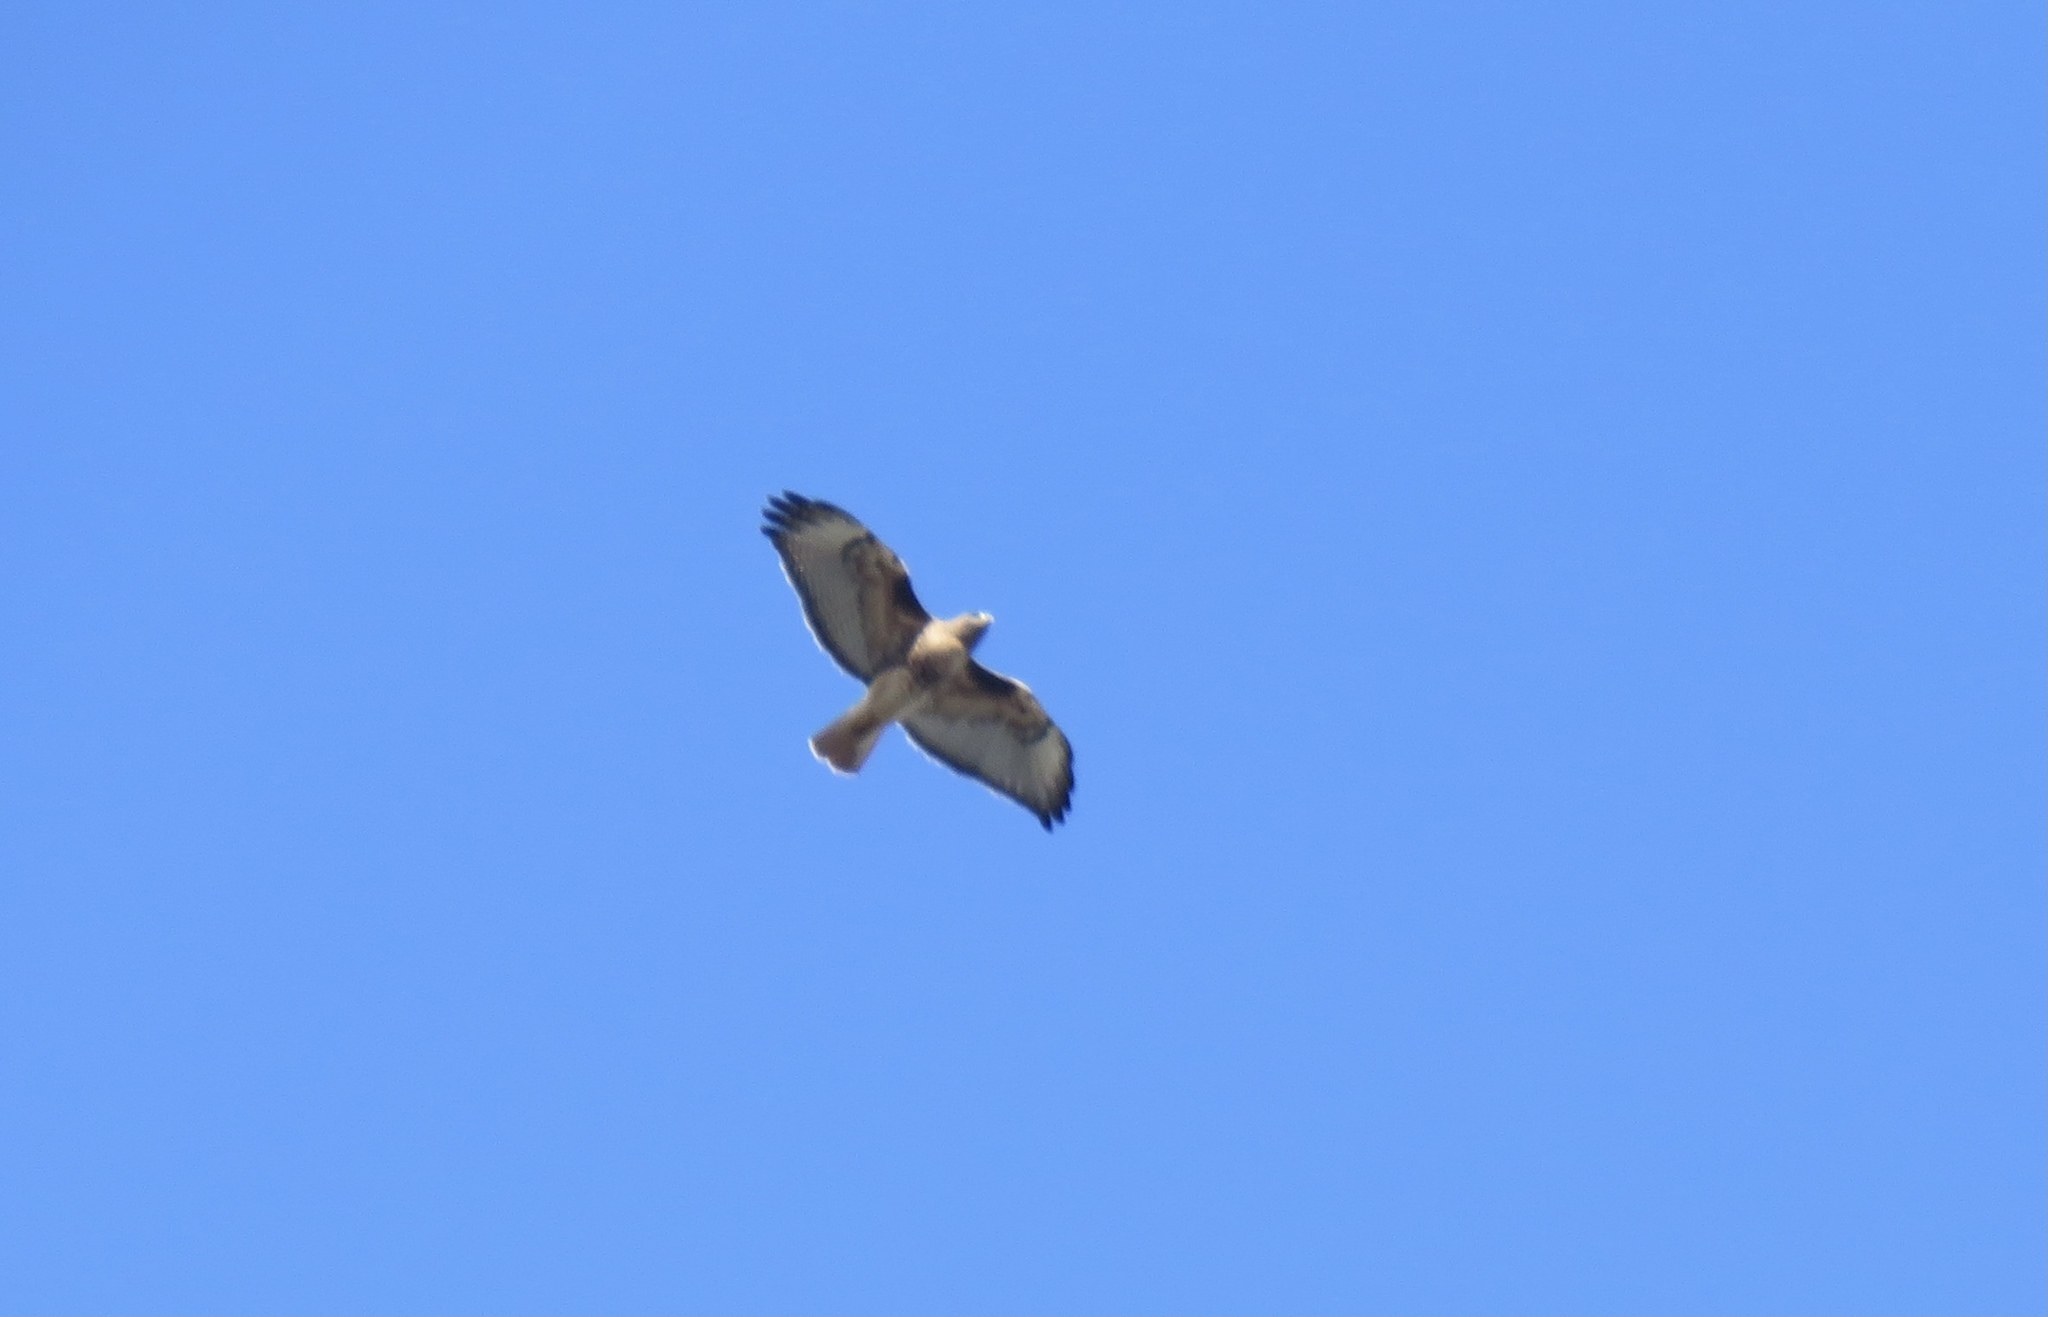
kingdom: Animalia
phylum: Chordata
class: Aves
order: Accipitriformes
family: Accipitridae
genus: Buteo
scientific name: Buteo jamaicensis
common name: Red-tailed hawk
